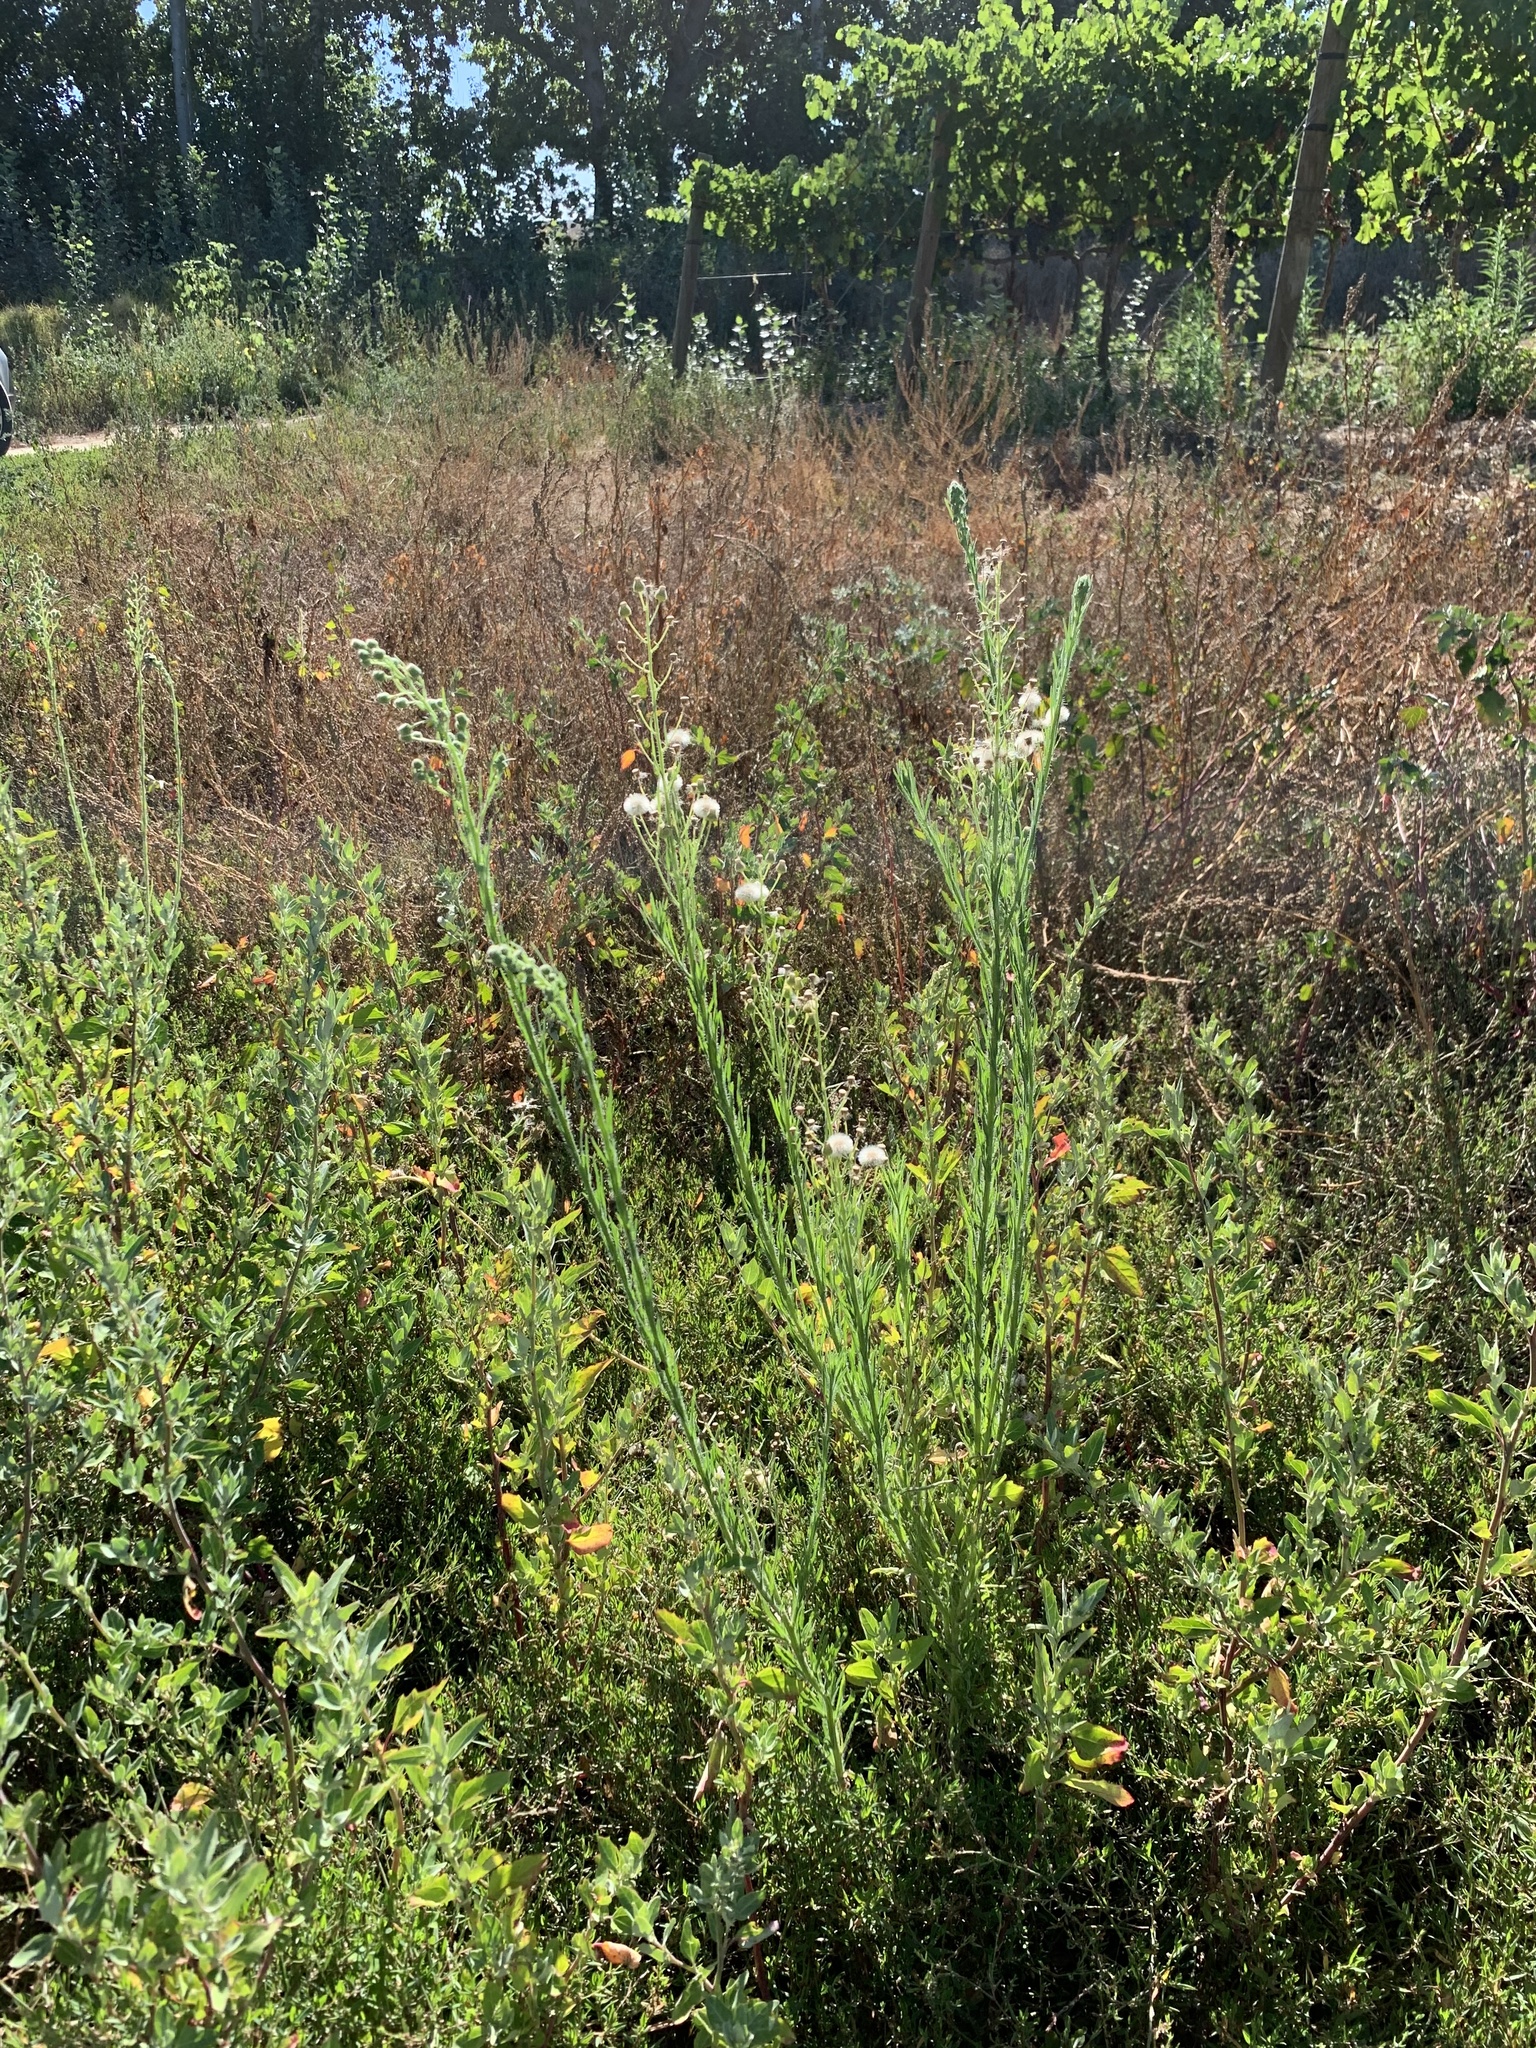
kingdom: Plantae
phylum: Tracheophyta
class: Magnoliopsida
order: Asterales
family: Asteraceae
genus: Erigeron
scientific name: Erigeron bonariensis
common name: Argentine fleabane
